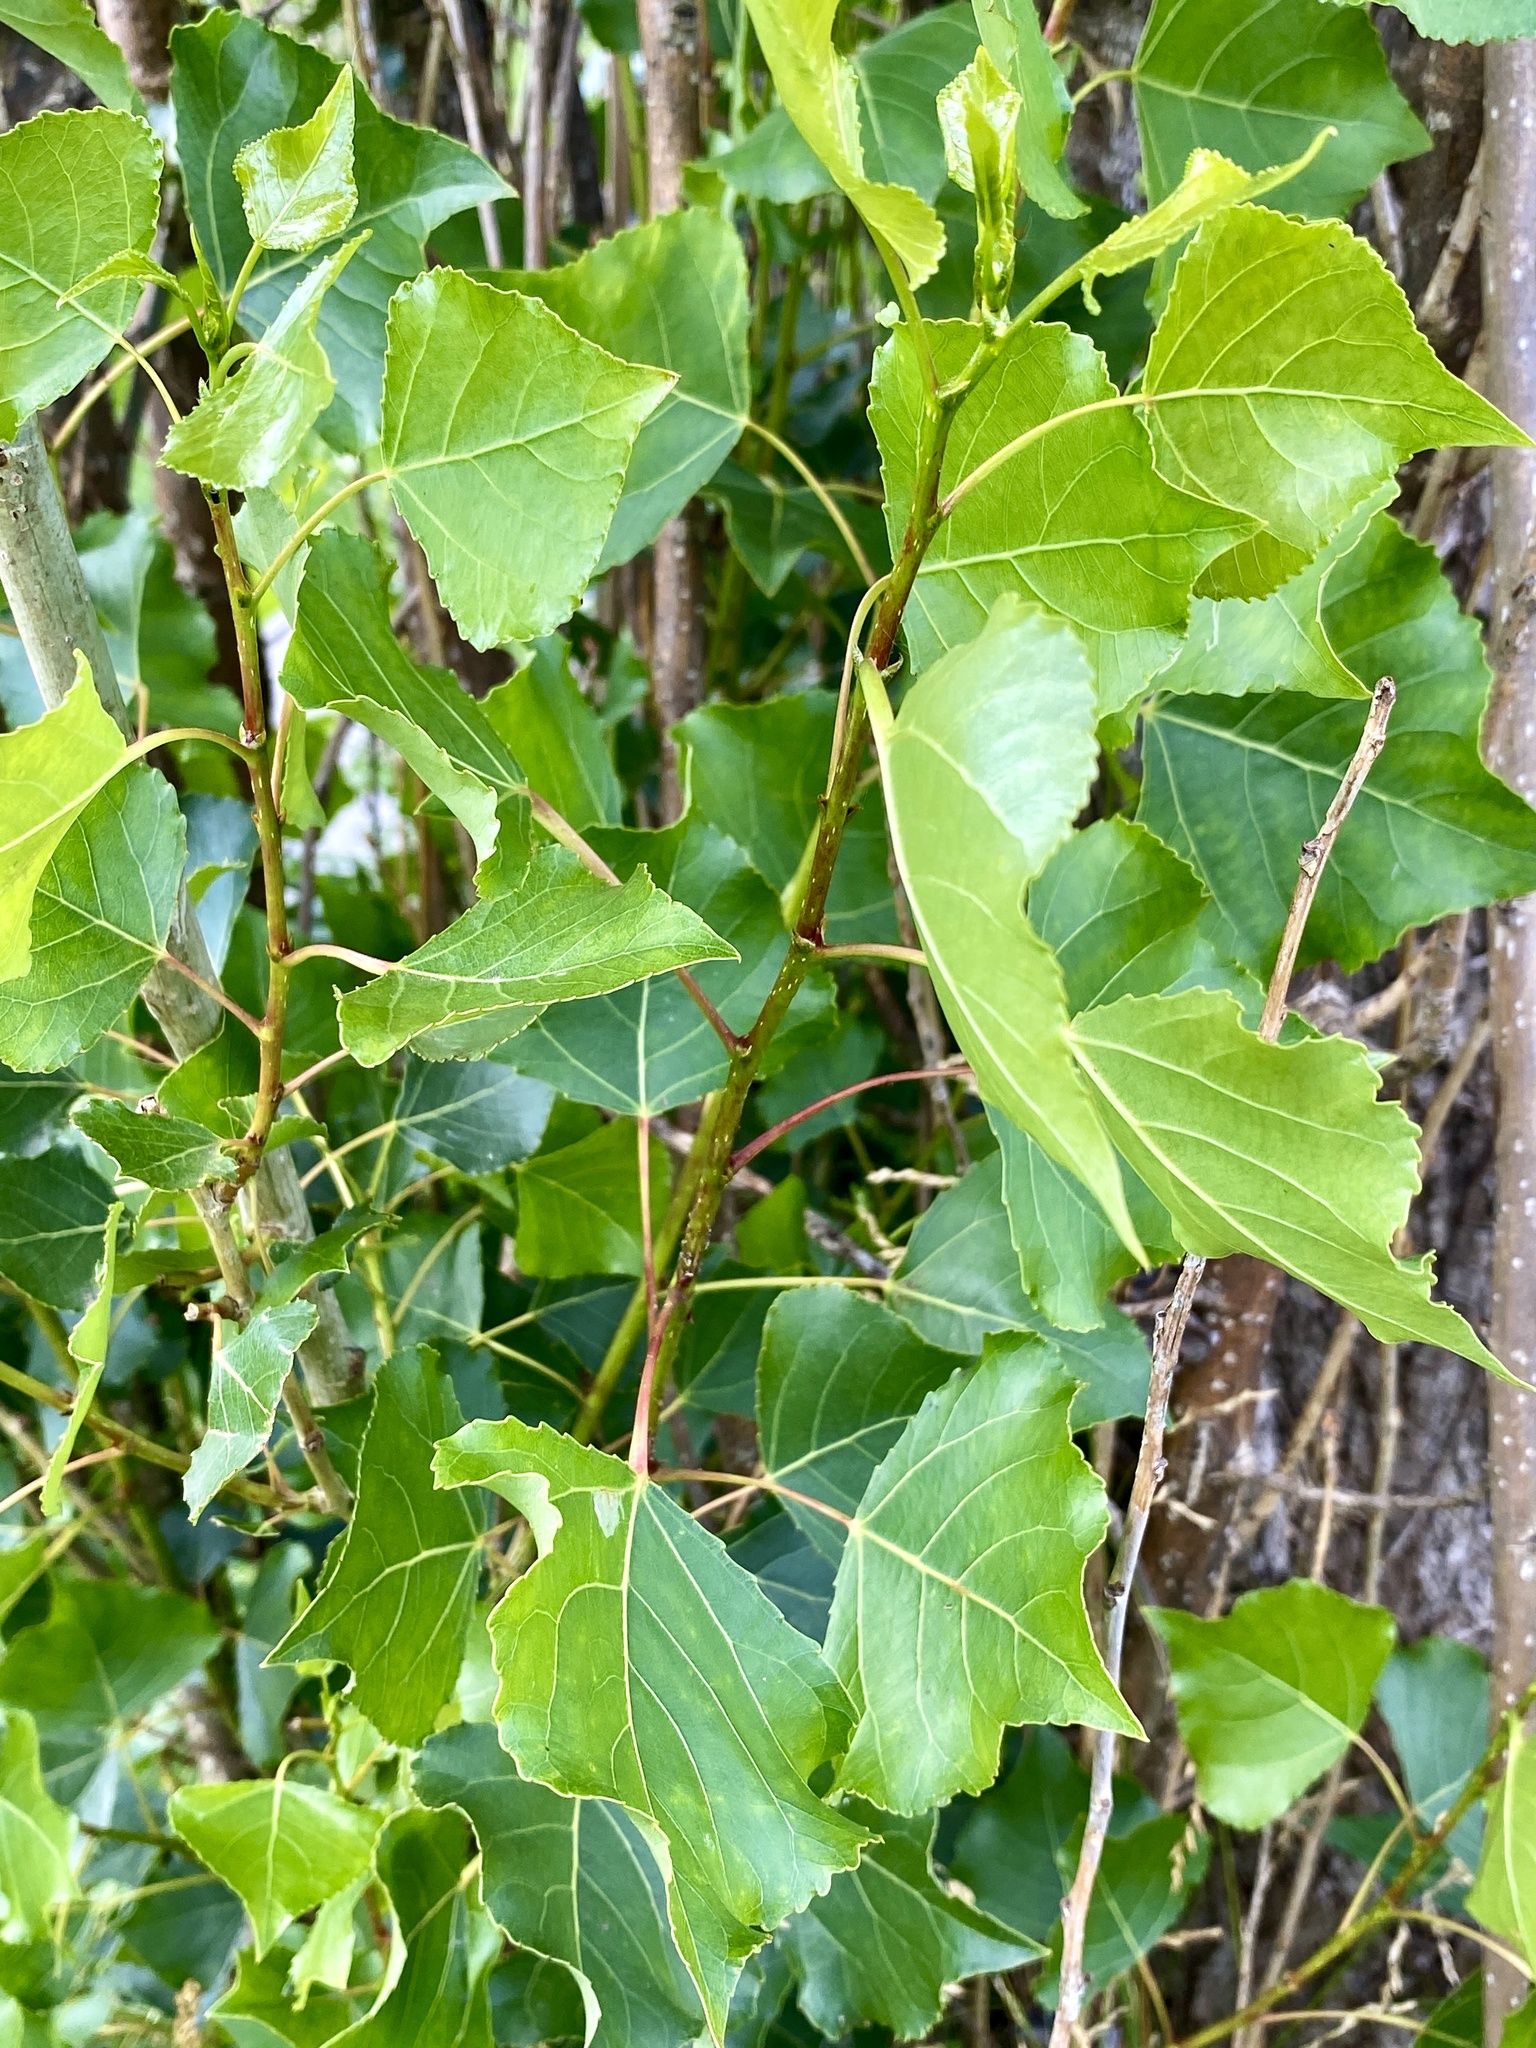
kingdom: Plantae
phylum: Tracheophyta
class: Magnoliopsida
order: Malpighiales
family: Salicaceae
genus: Populus
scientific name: Populus deltoides
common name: Eastern cottonwood
